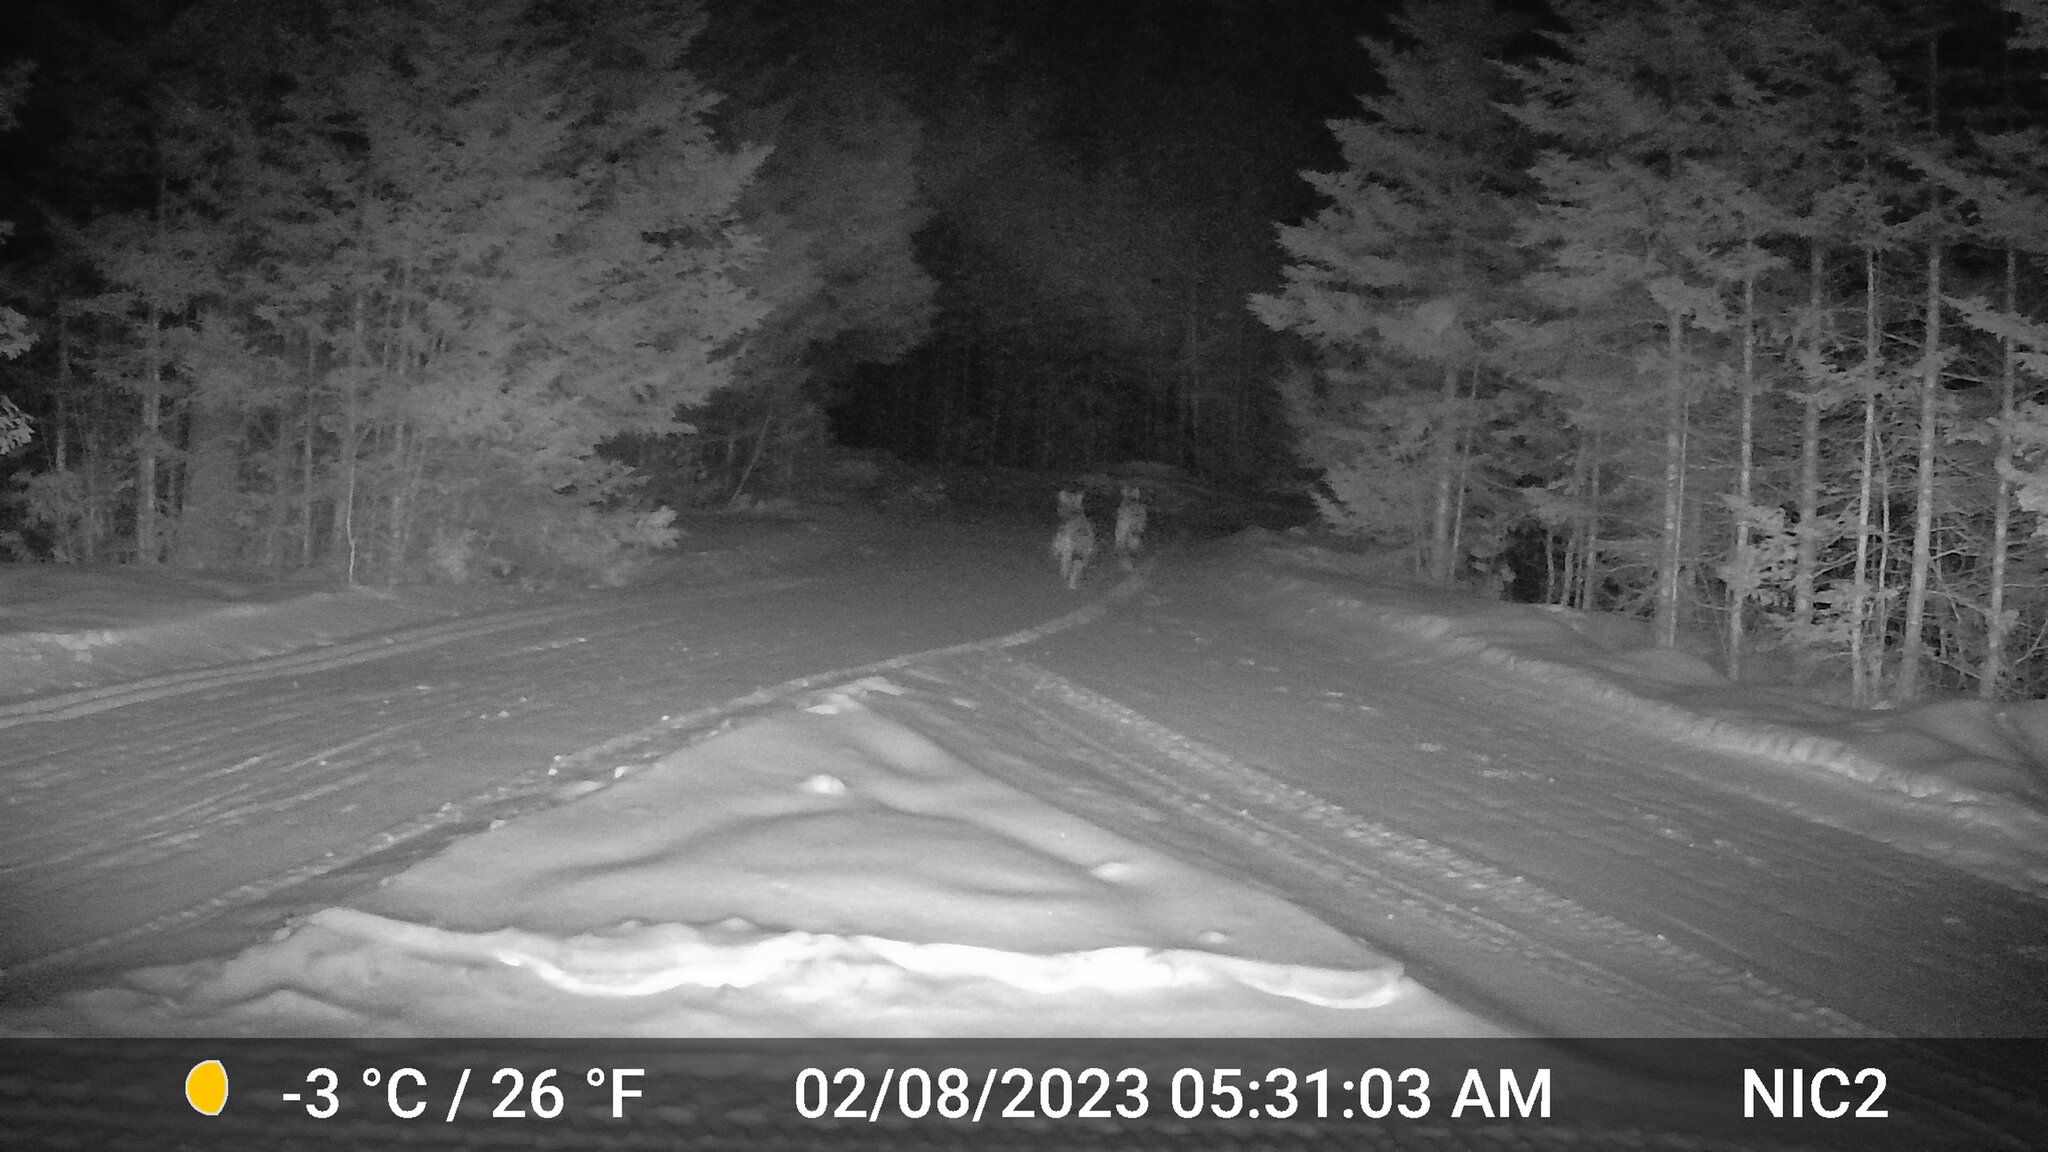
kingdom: Animalia
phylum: Chordata
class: Mammalia
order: Carnivora
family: Canidae
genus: Canis
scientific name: Canis latrans
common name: Coyote
